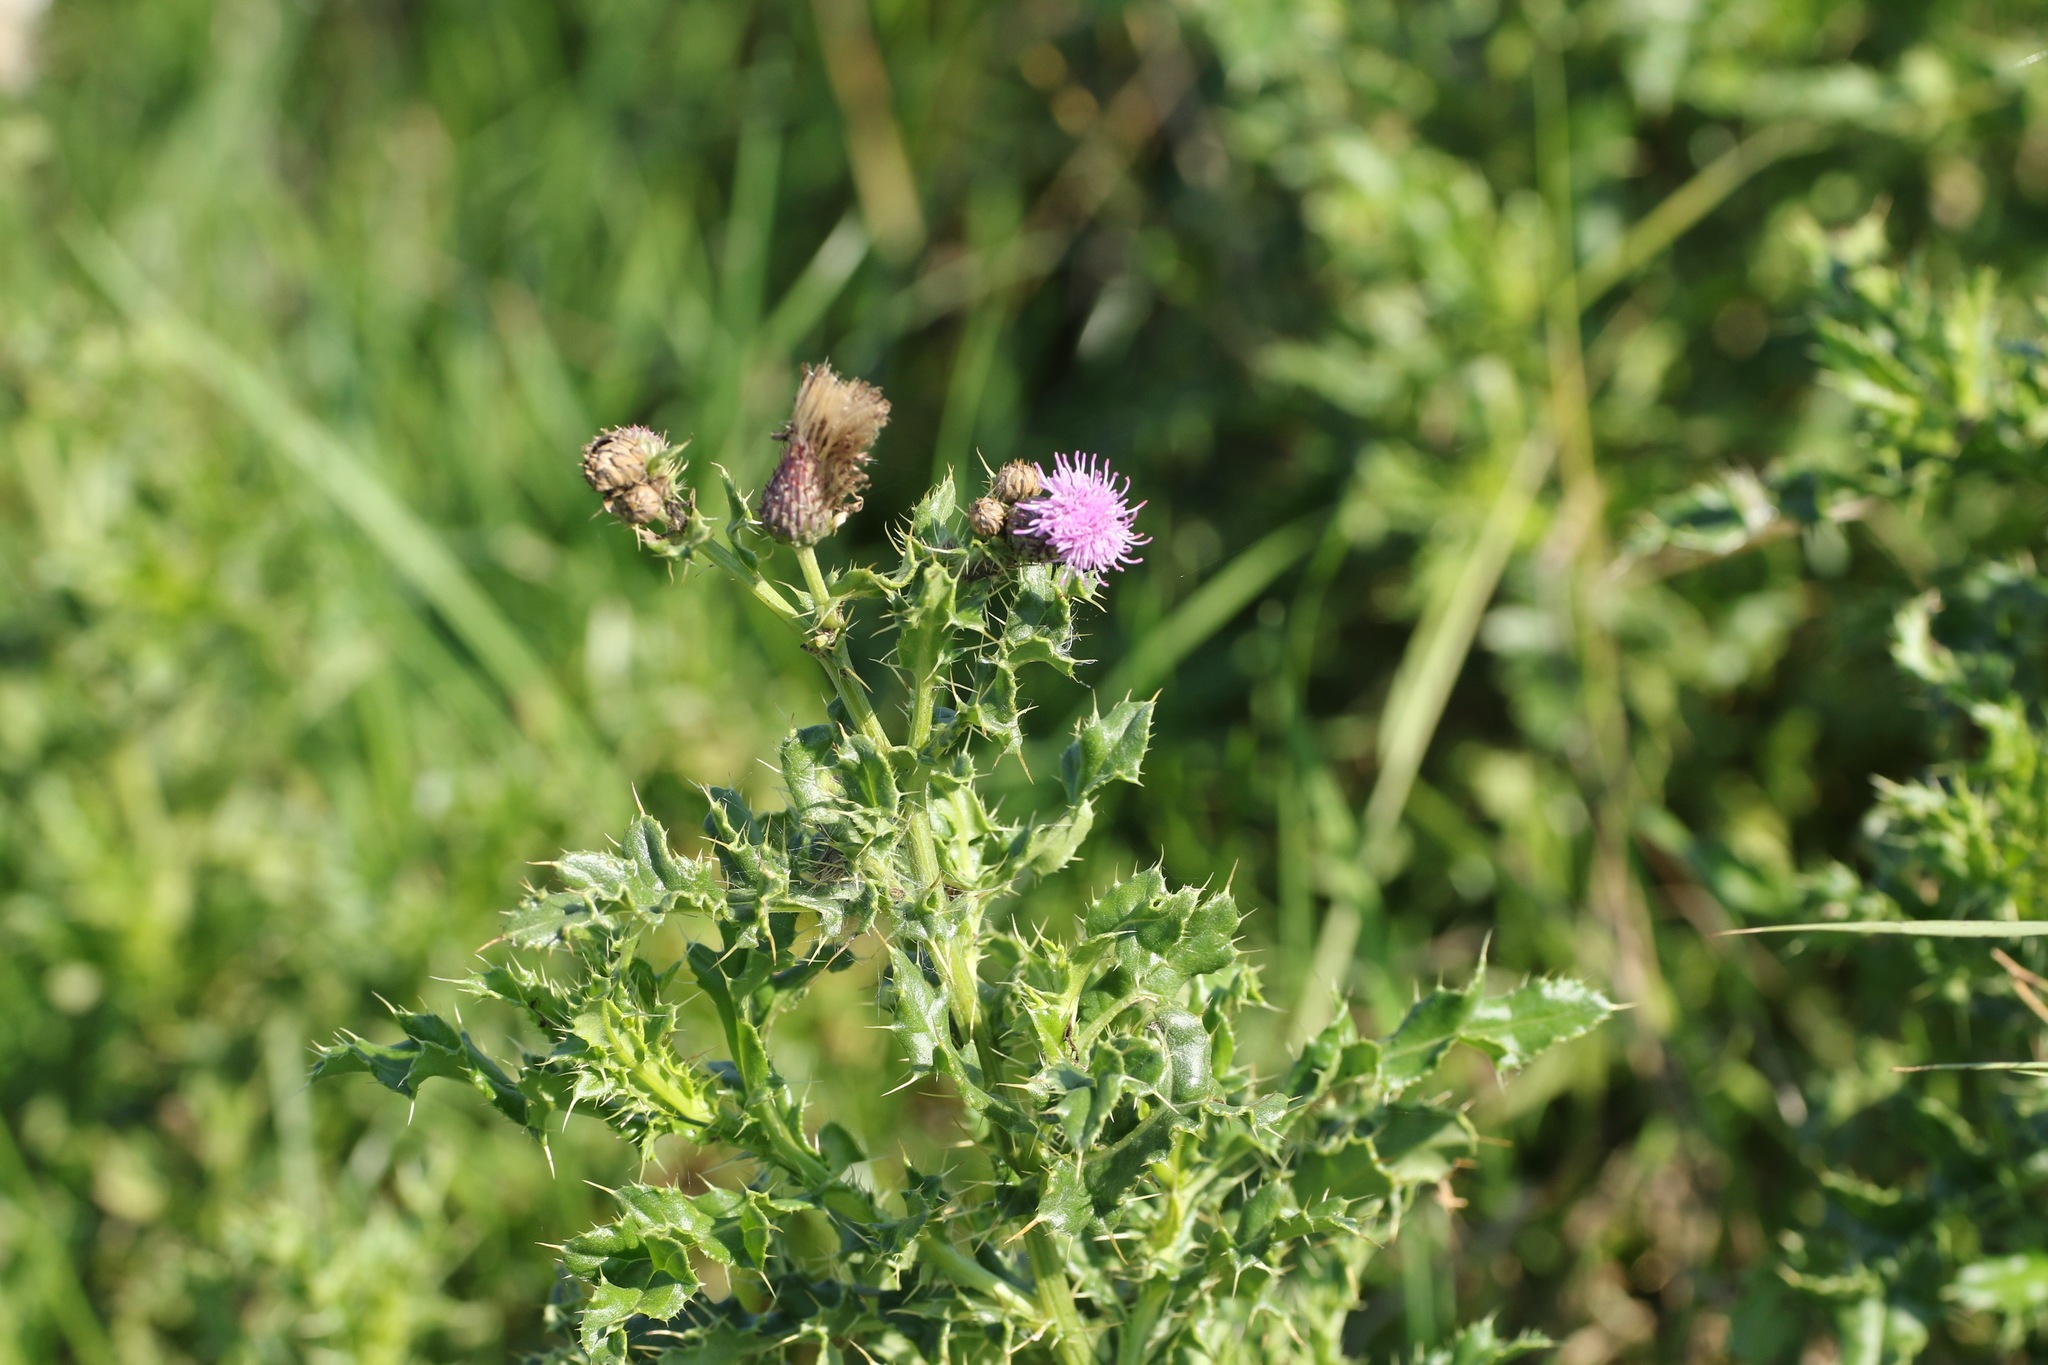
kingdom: Plantae
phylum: Tracheophyta
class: Magnoliopsida
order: Asterales
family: Asteraceae
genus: Cirsium
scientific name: Cirsium arvense
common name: Creeping thistle
